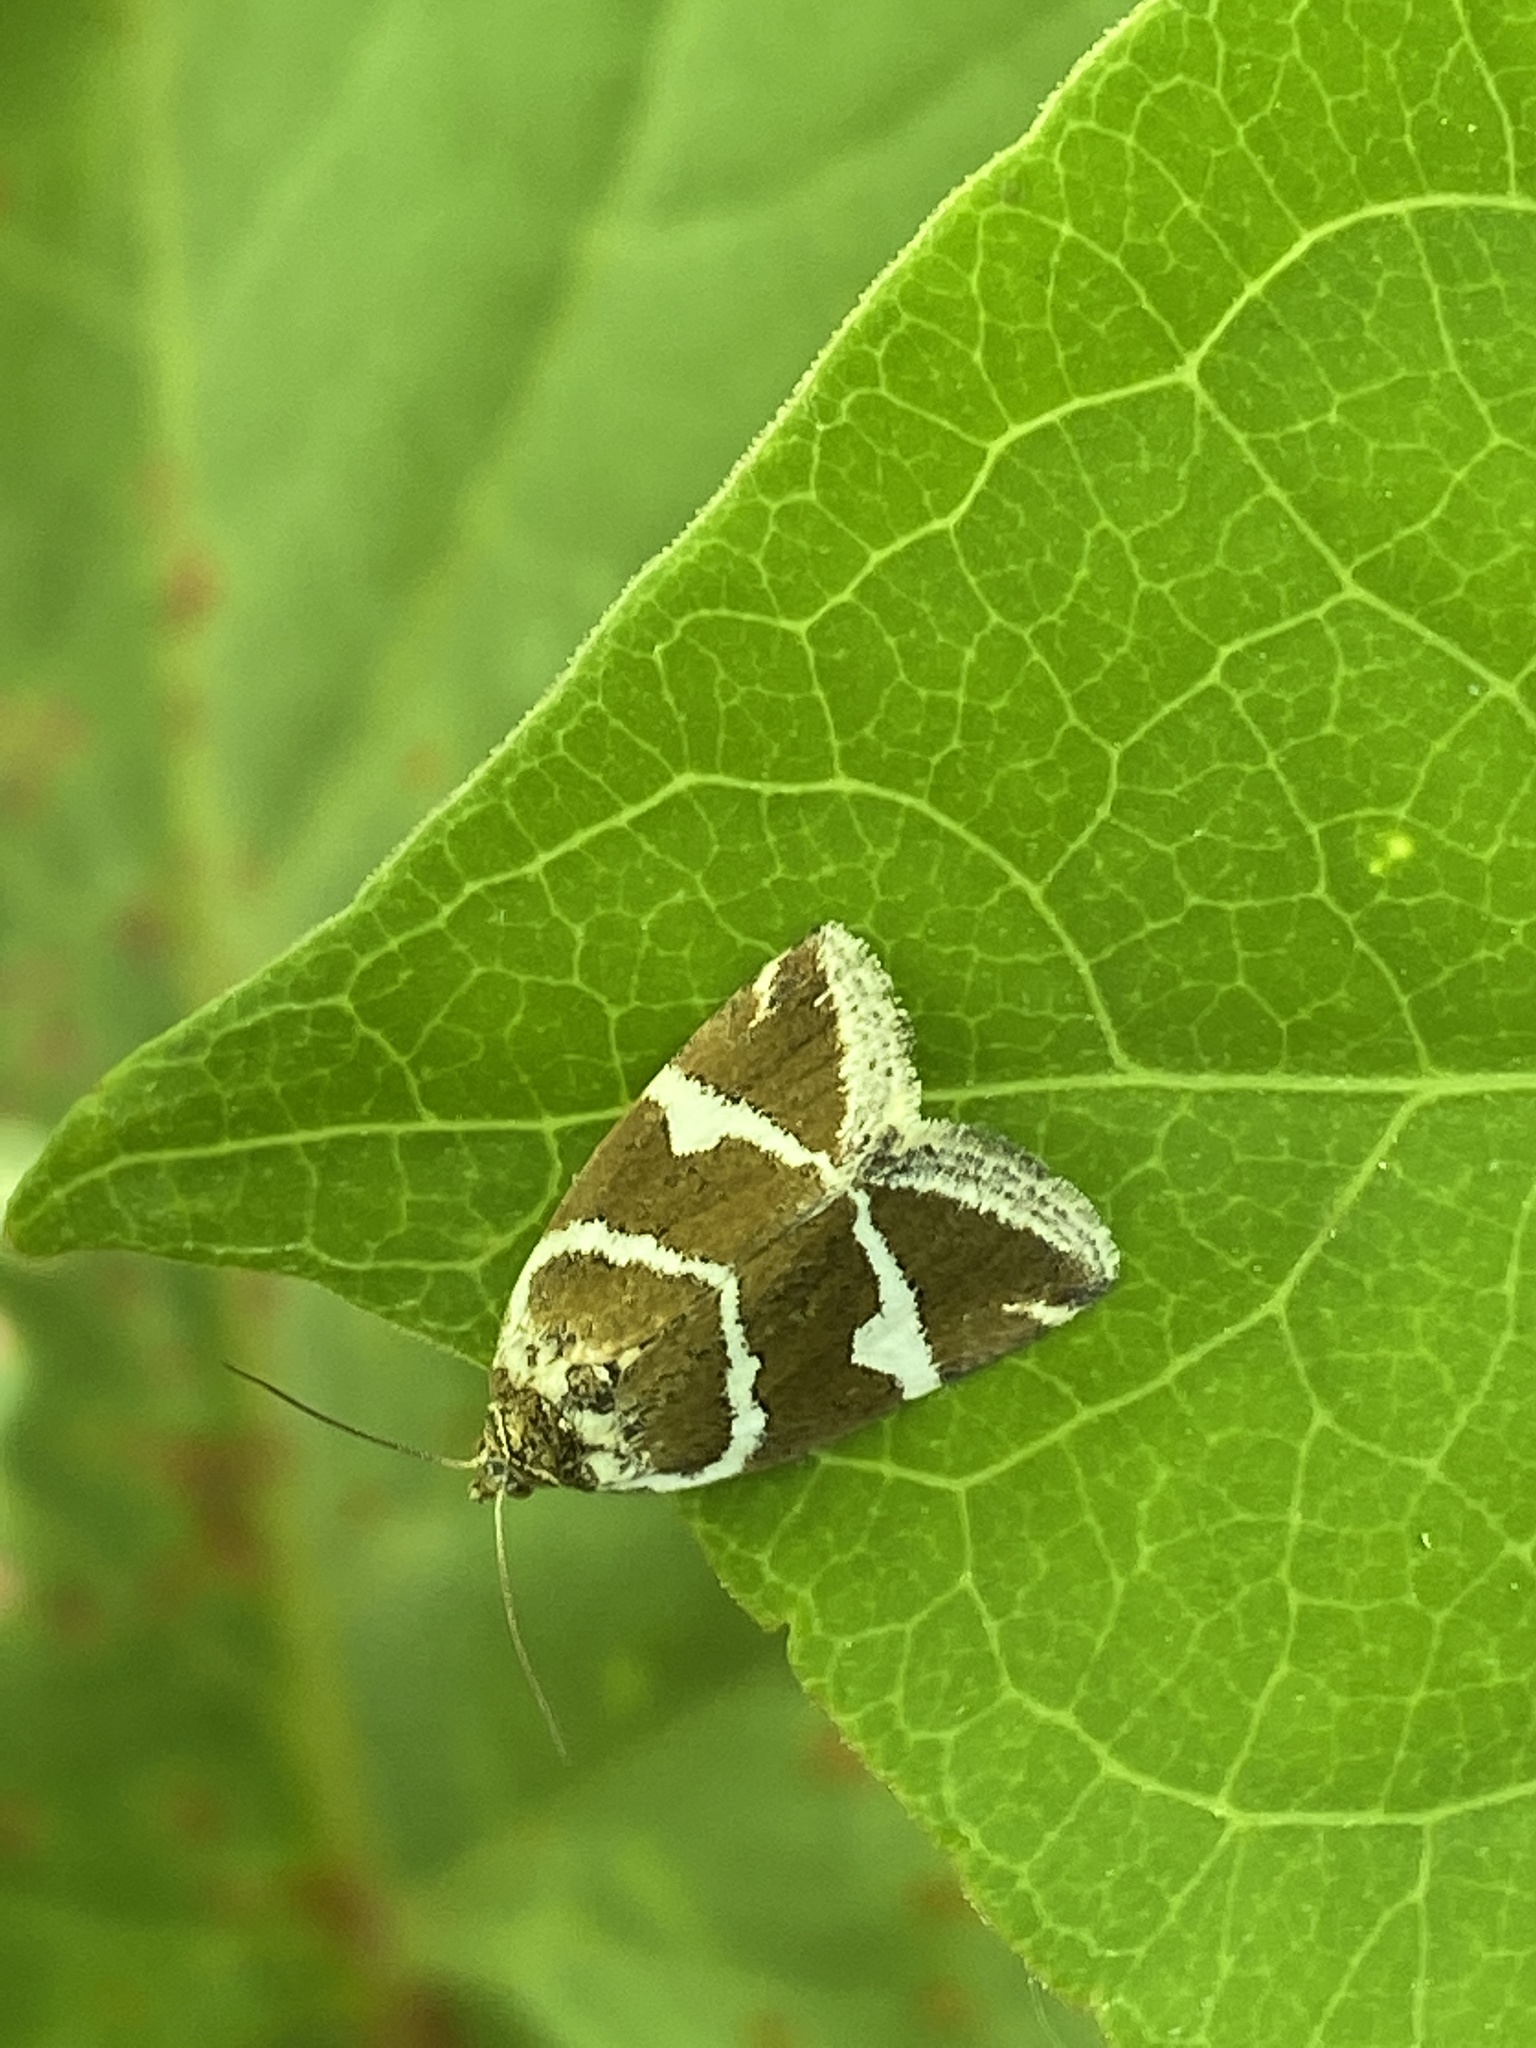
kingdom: Animalia
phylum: Arthropoda
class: Insecta
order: Lepidoptera
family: Noctuidae
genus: Deltote
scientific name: Deltote bankiana
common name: Silver barred
